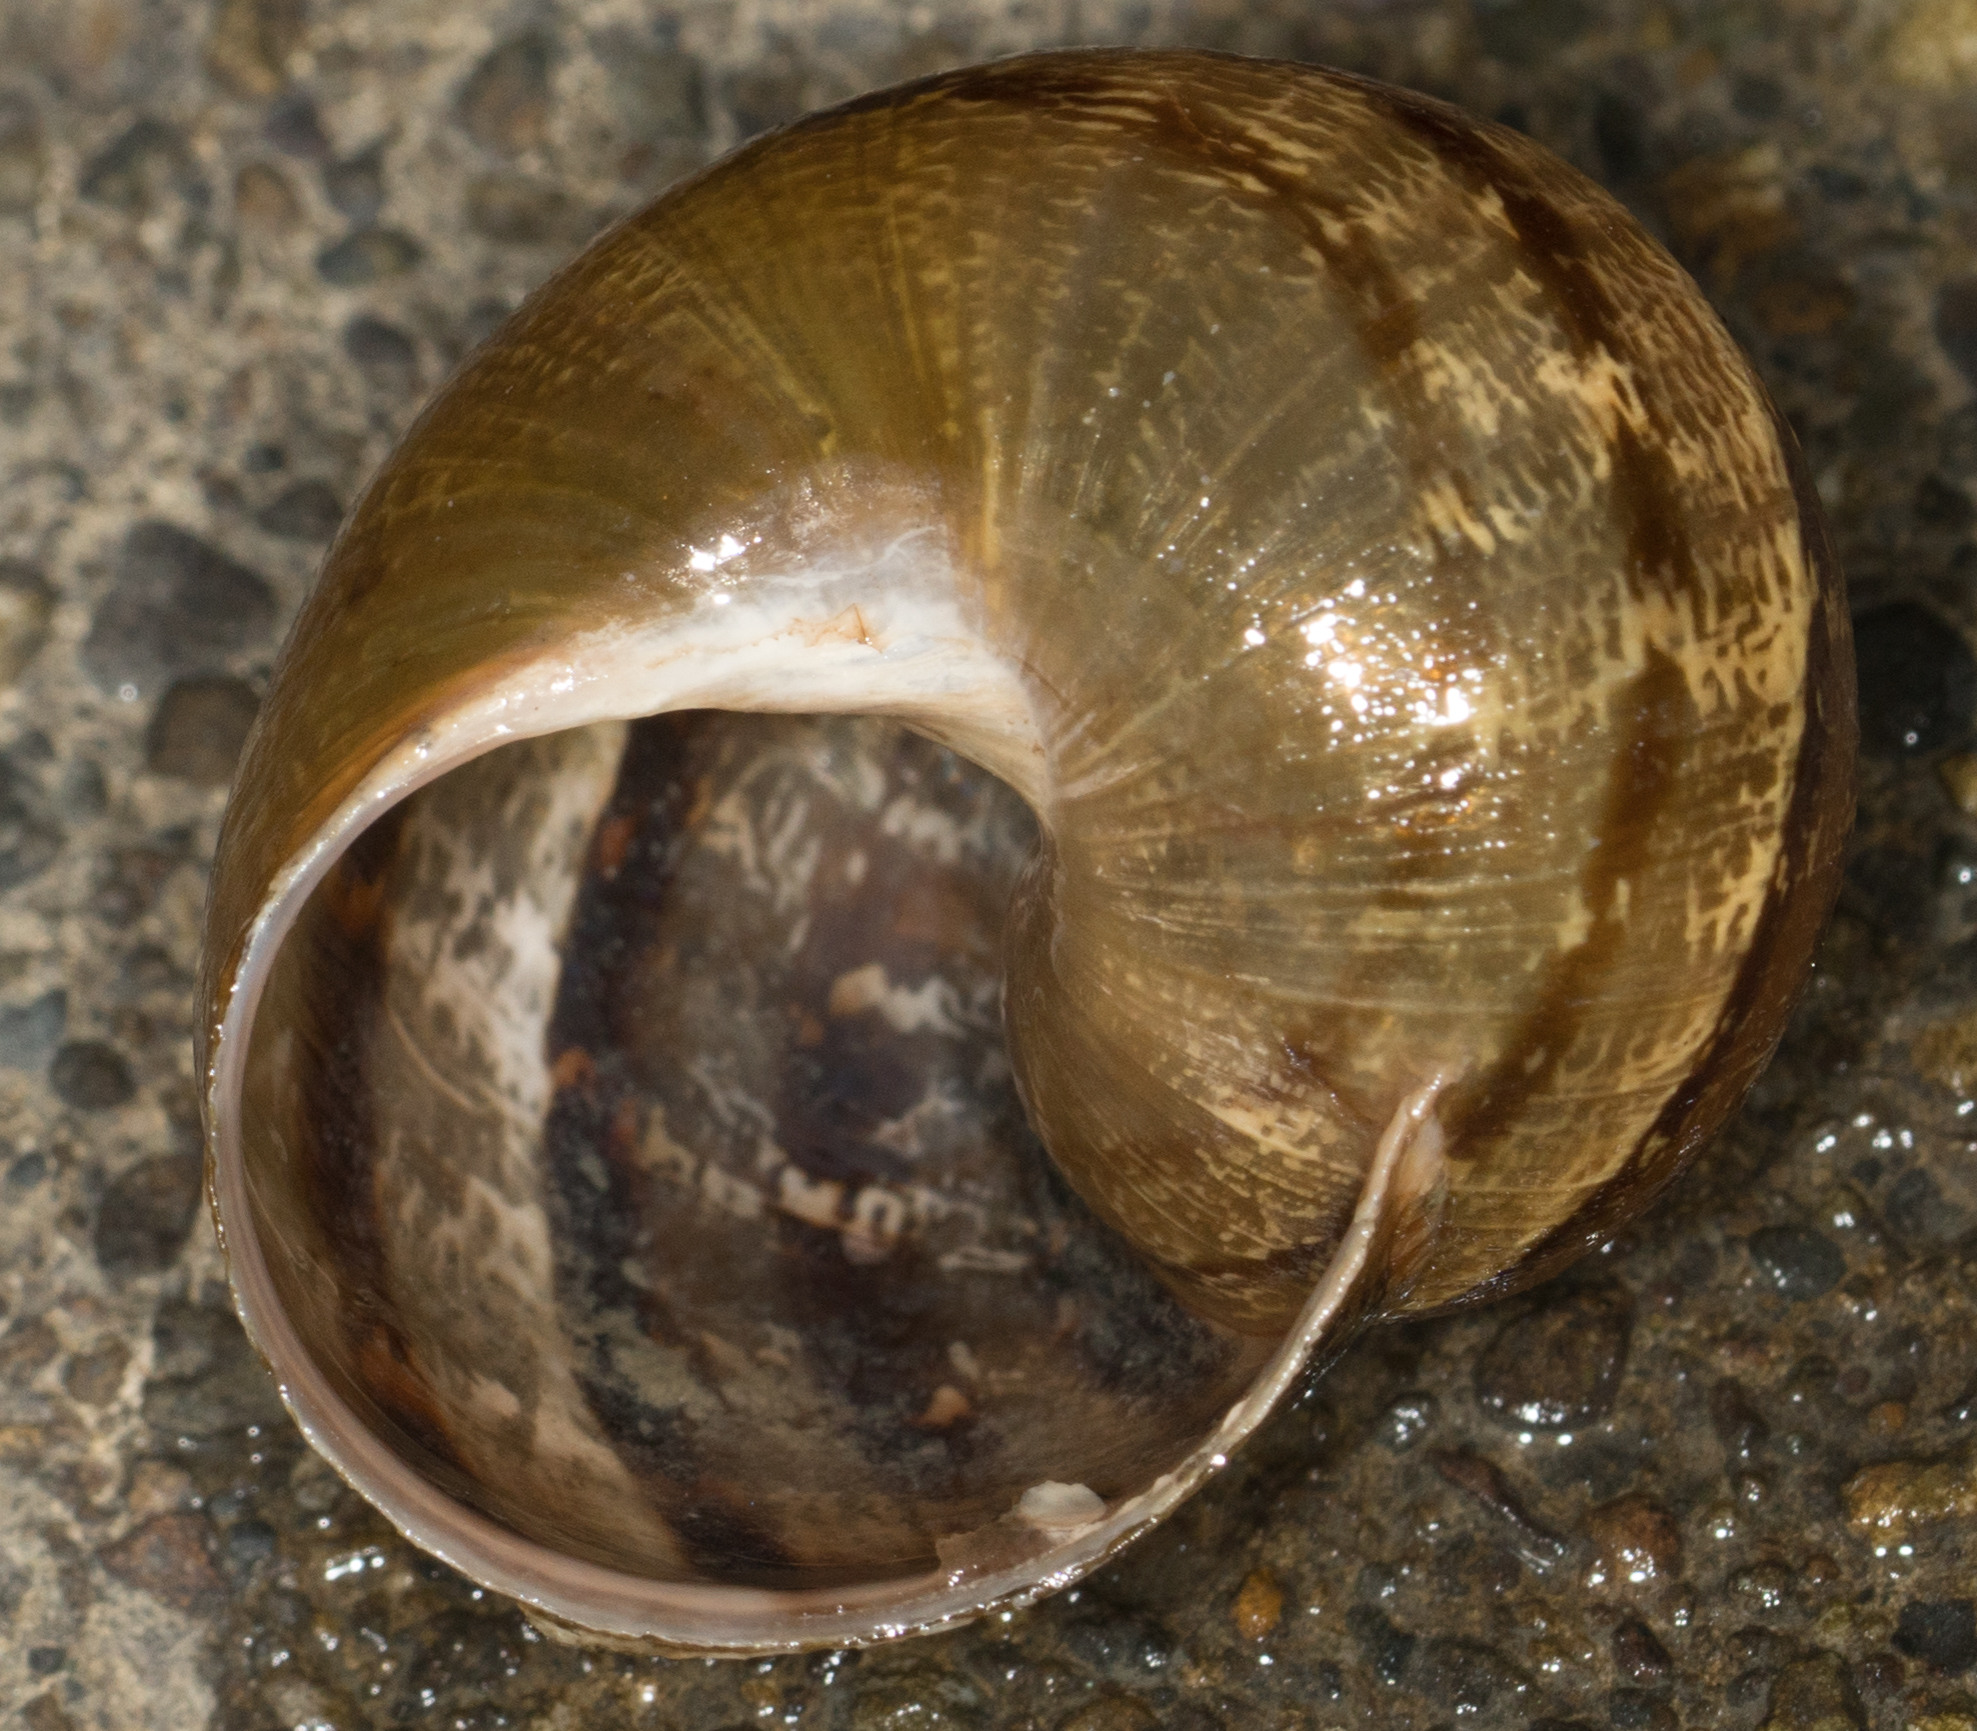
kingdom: Animalia
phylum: Mollusca
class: Gastropoda
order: Stylommatophora
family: Helicidae
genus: Cornu
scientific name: Cornu aspersum
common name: Brown garden snail
